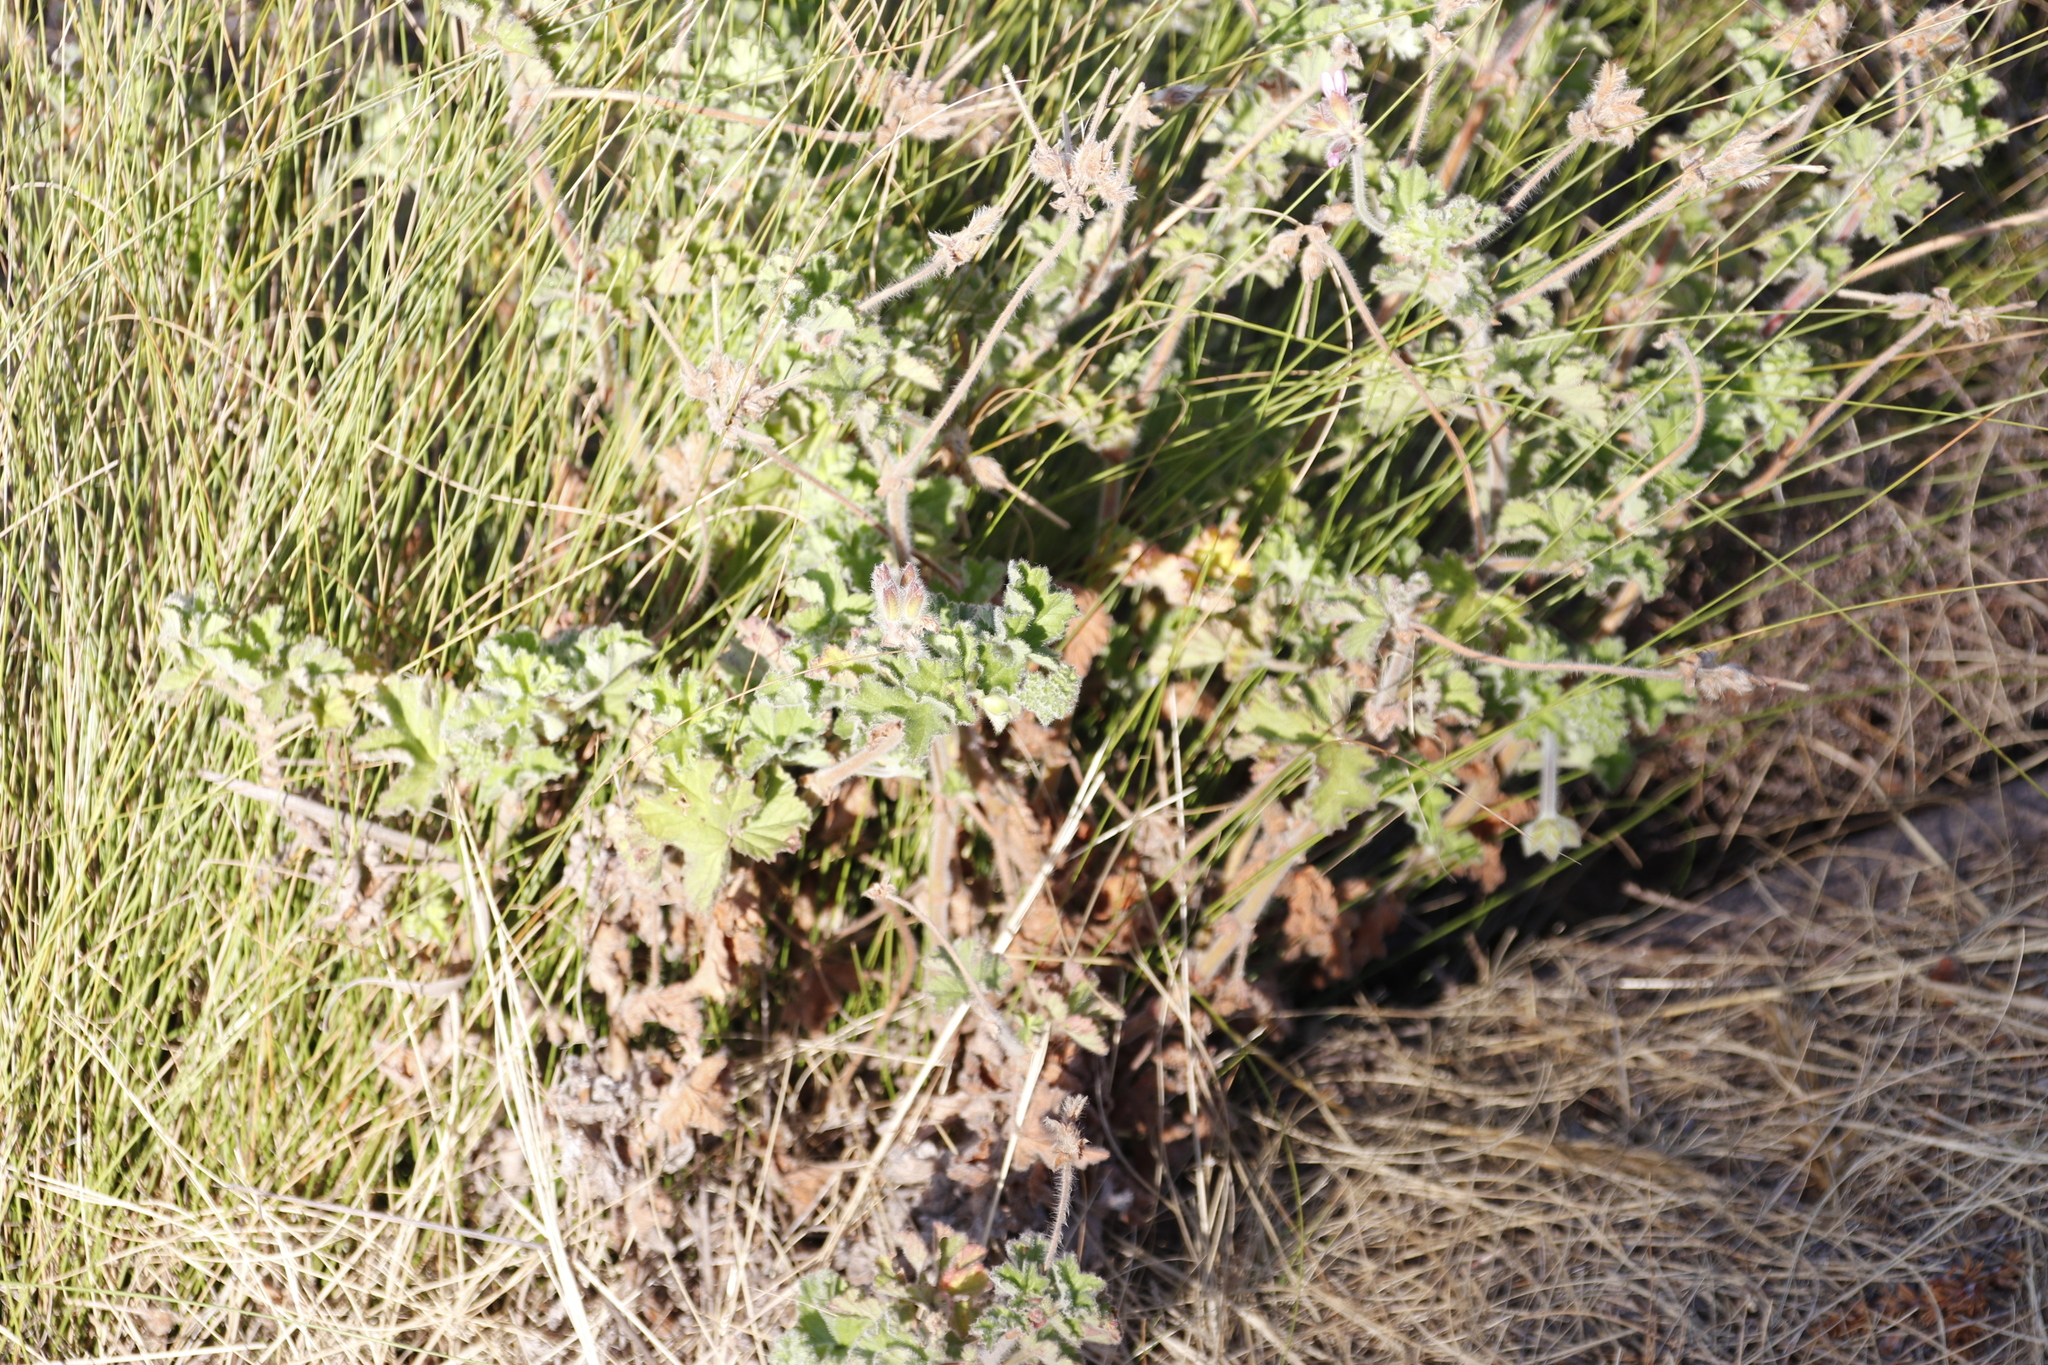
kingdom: Plantae
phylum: Tracheophyta
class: Magnoliopsida
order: Geraniales
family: Geraniaceae
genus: Pelargonium
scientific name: Pelargonium capitatum
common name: Rose scented geranium
